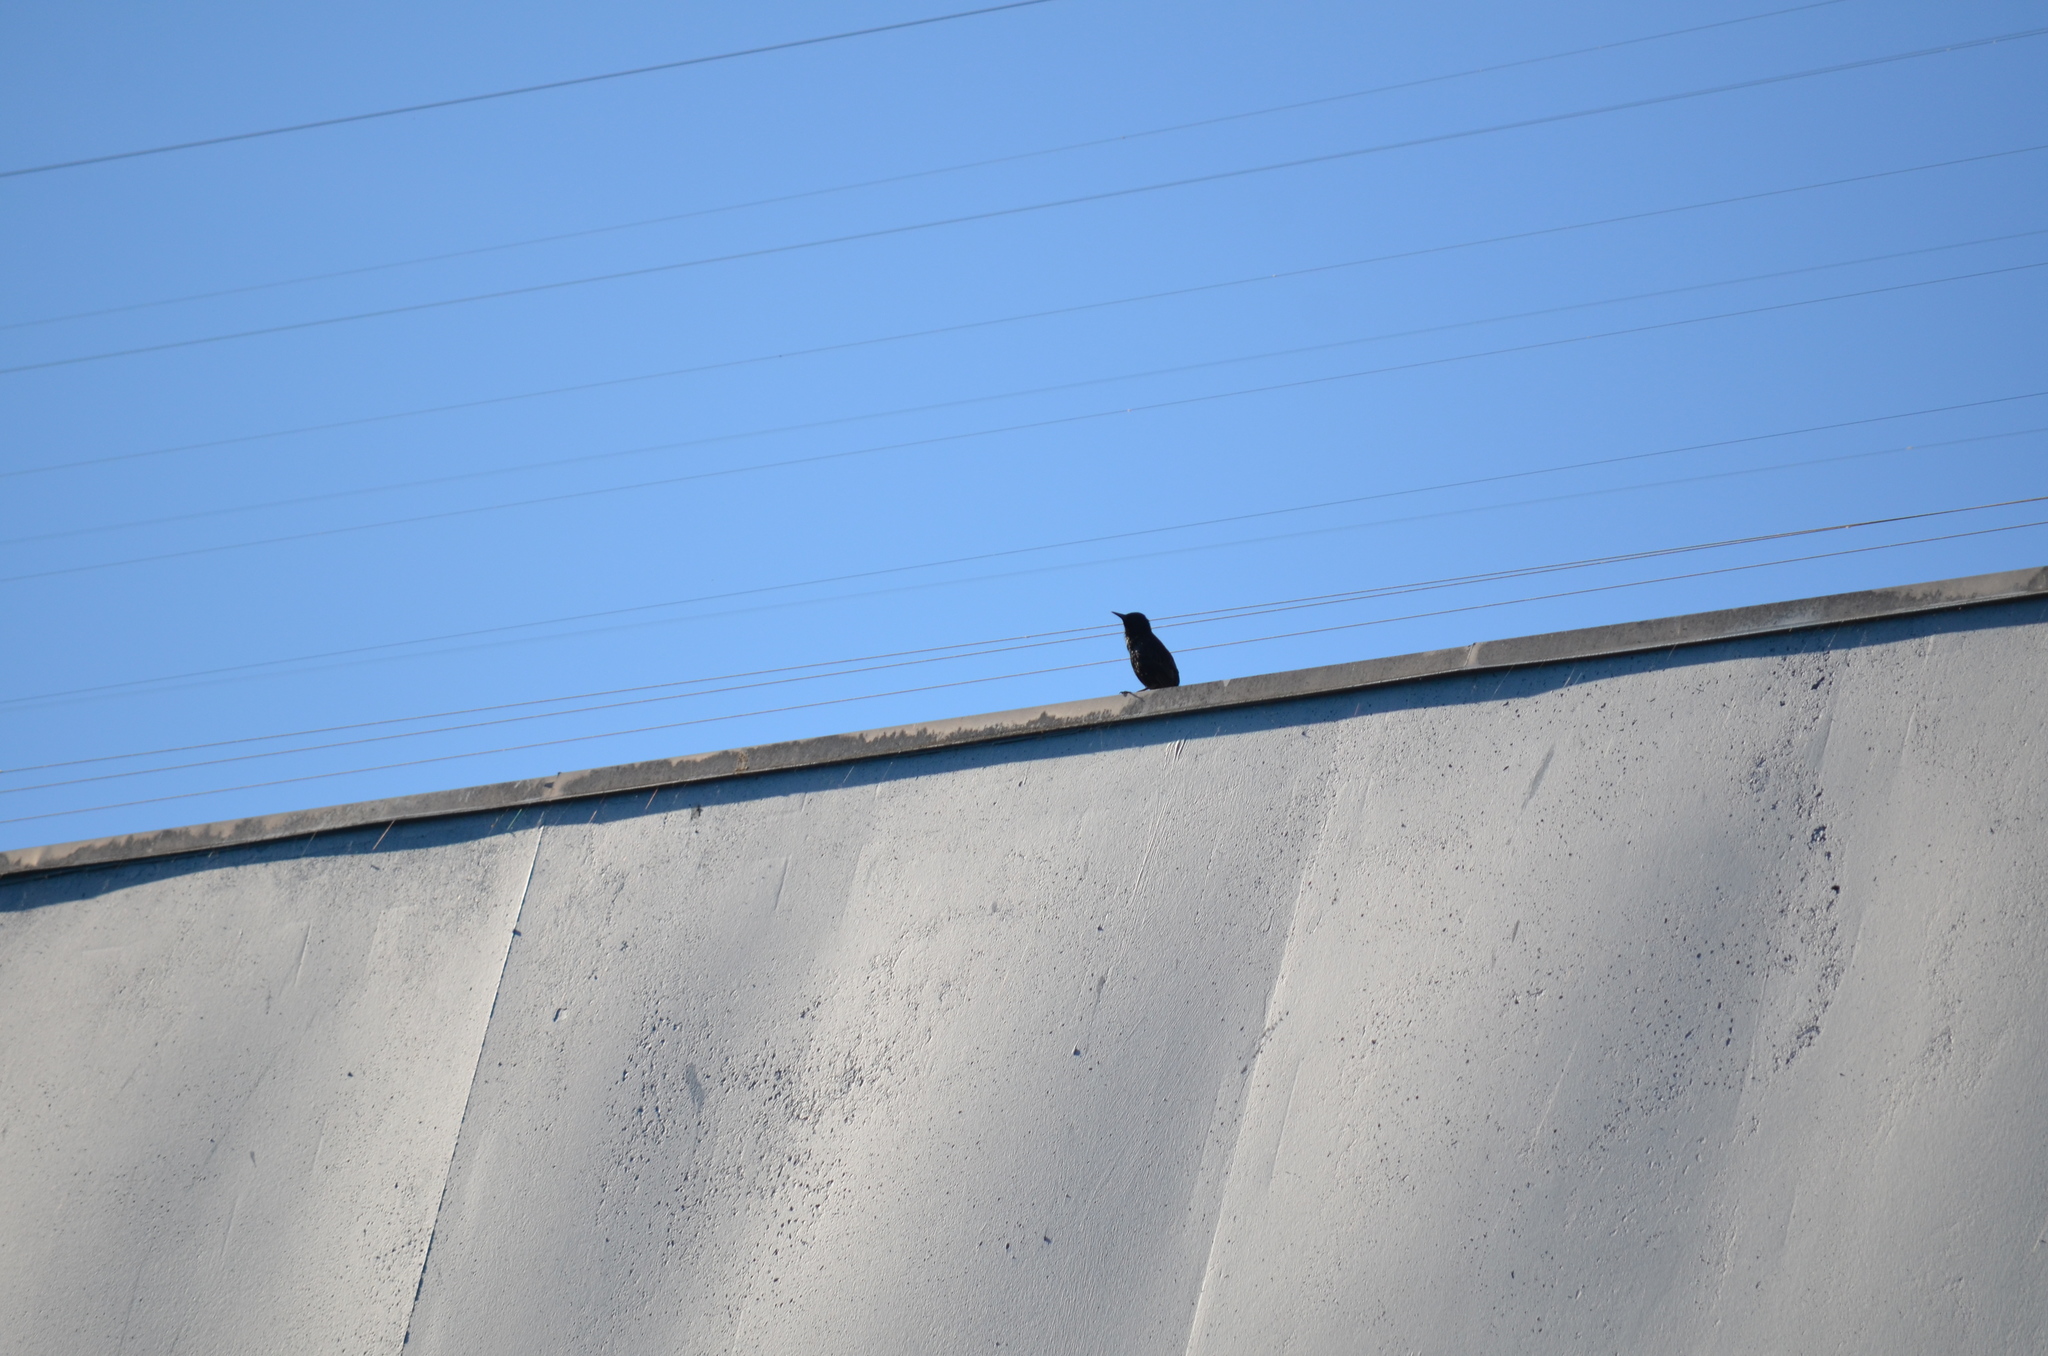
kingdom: Animalia
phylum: Chordata
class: Aves
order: Passeriformes
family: Sturnidae
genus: Sturnus
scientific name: Sturnus vulgaris
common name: Common starling
